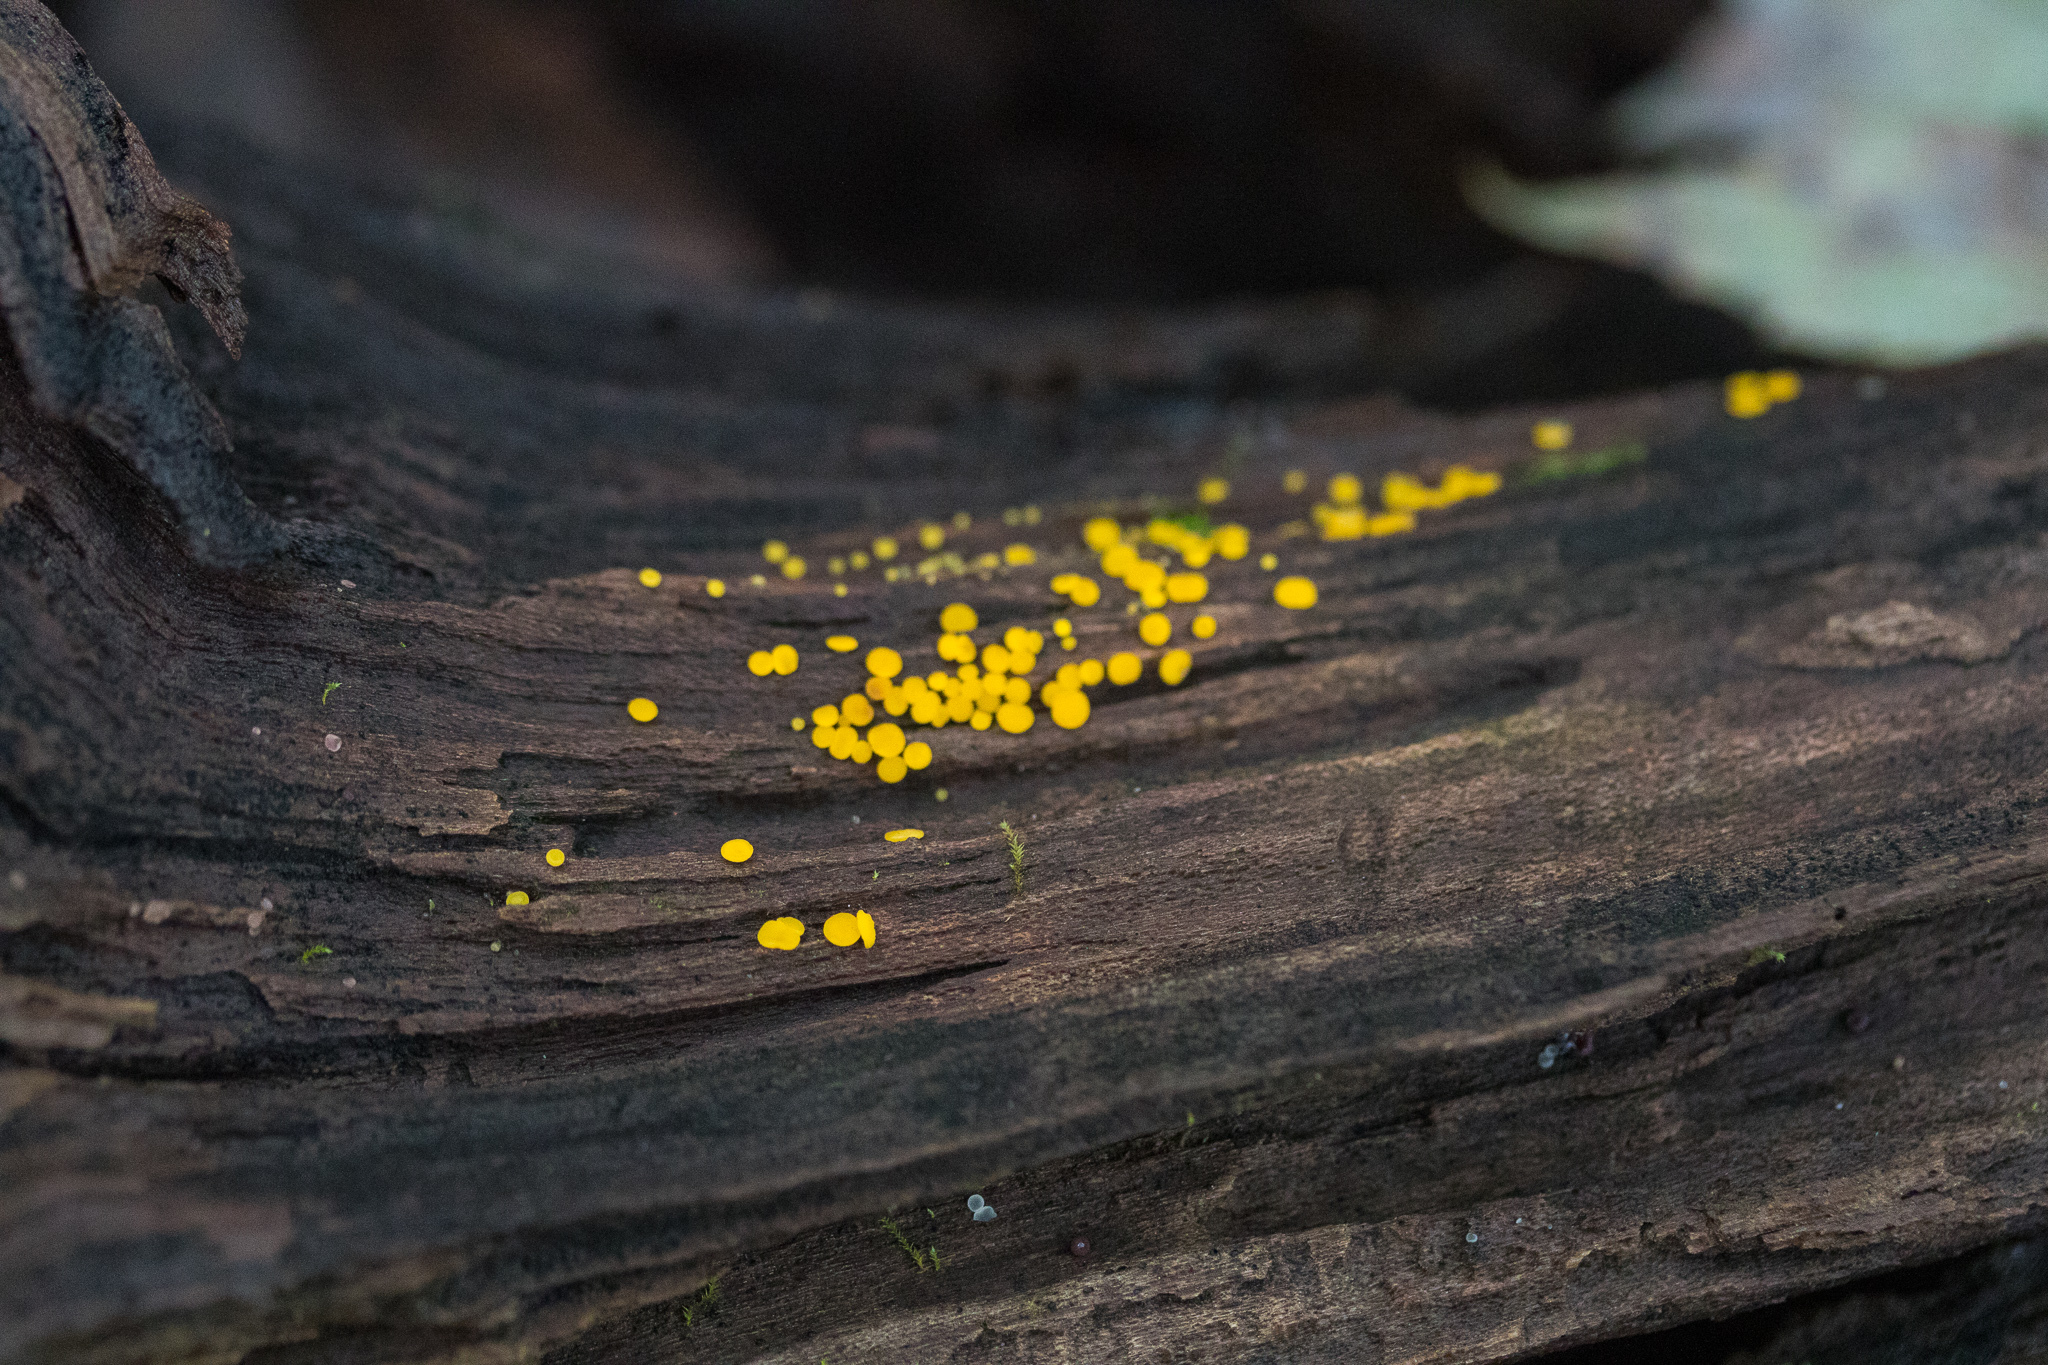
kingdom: Fungi
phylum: Ascomycota
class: Leotiomycetes
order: Helotiales
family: Pezizellaceae
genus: Calycina
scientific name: Calycina citrina
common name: Yellow fairy cups
